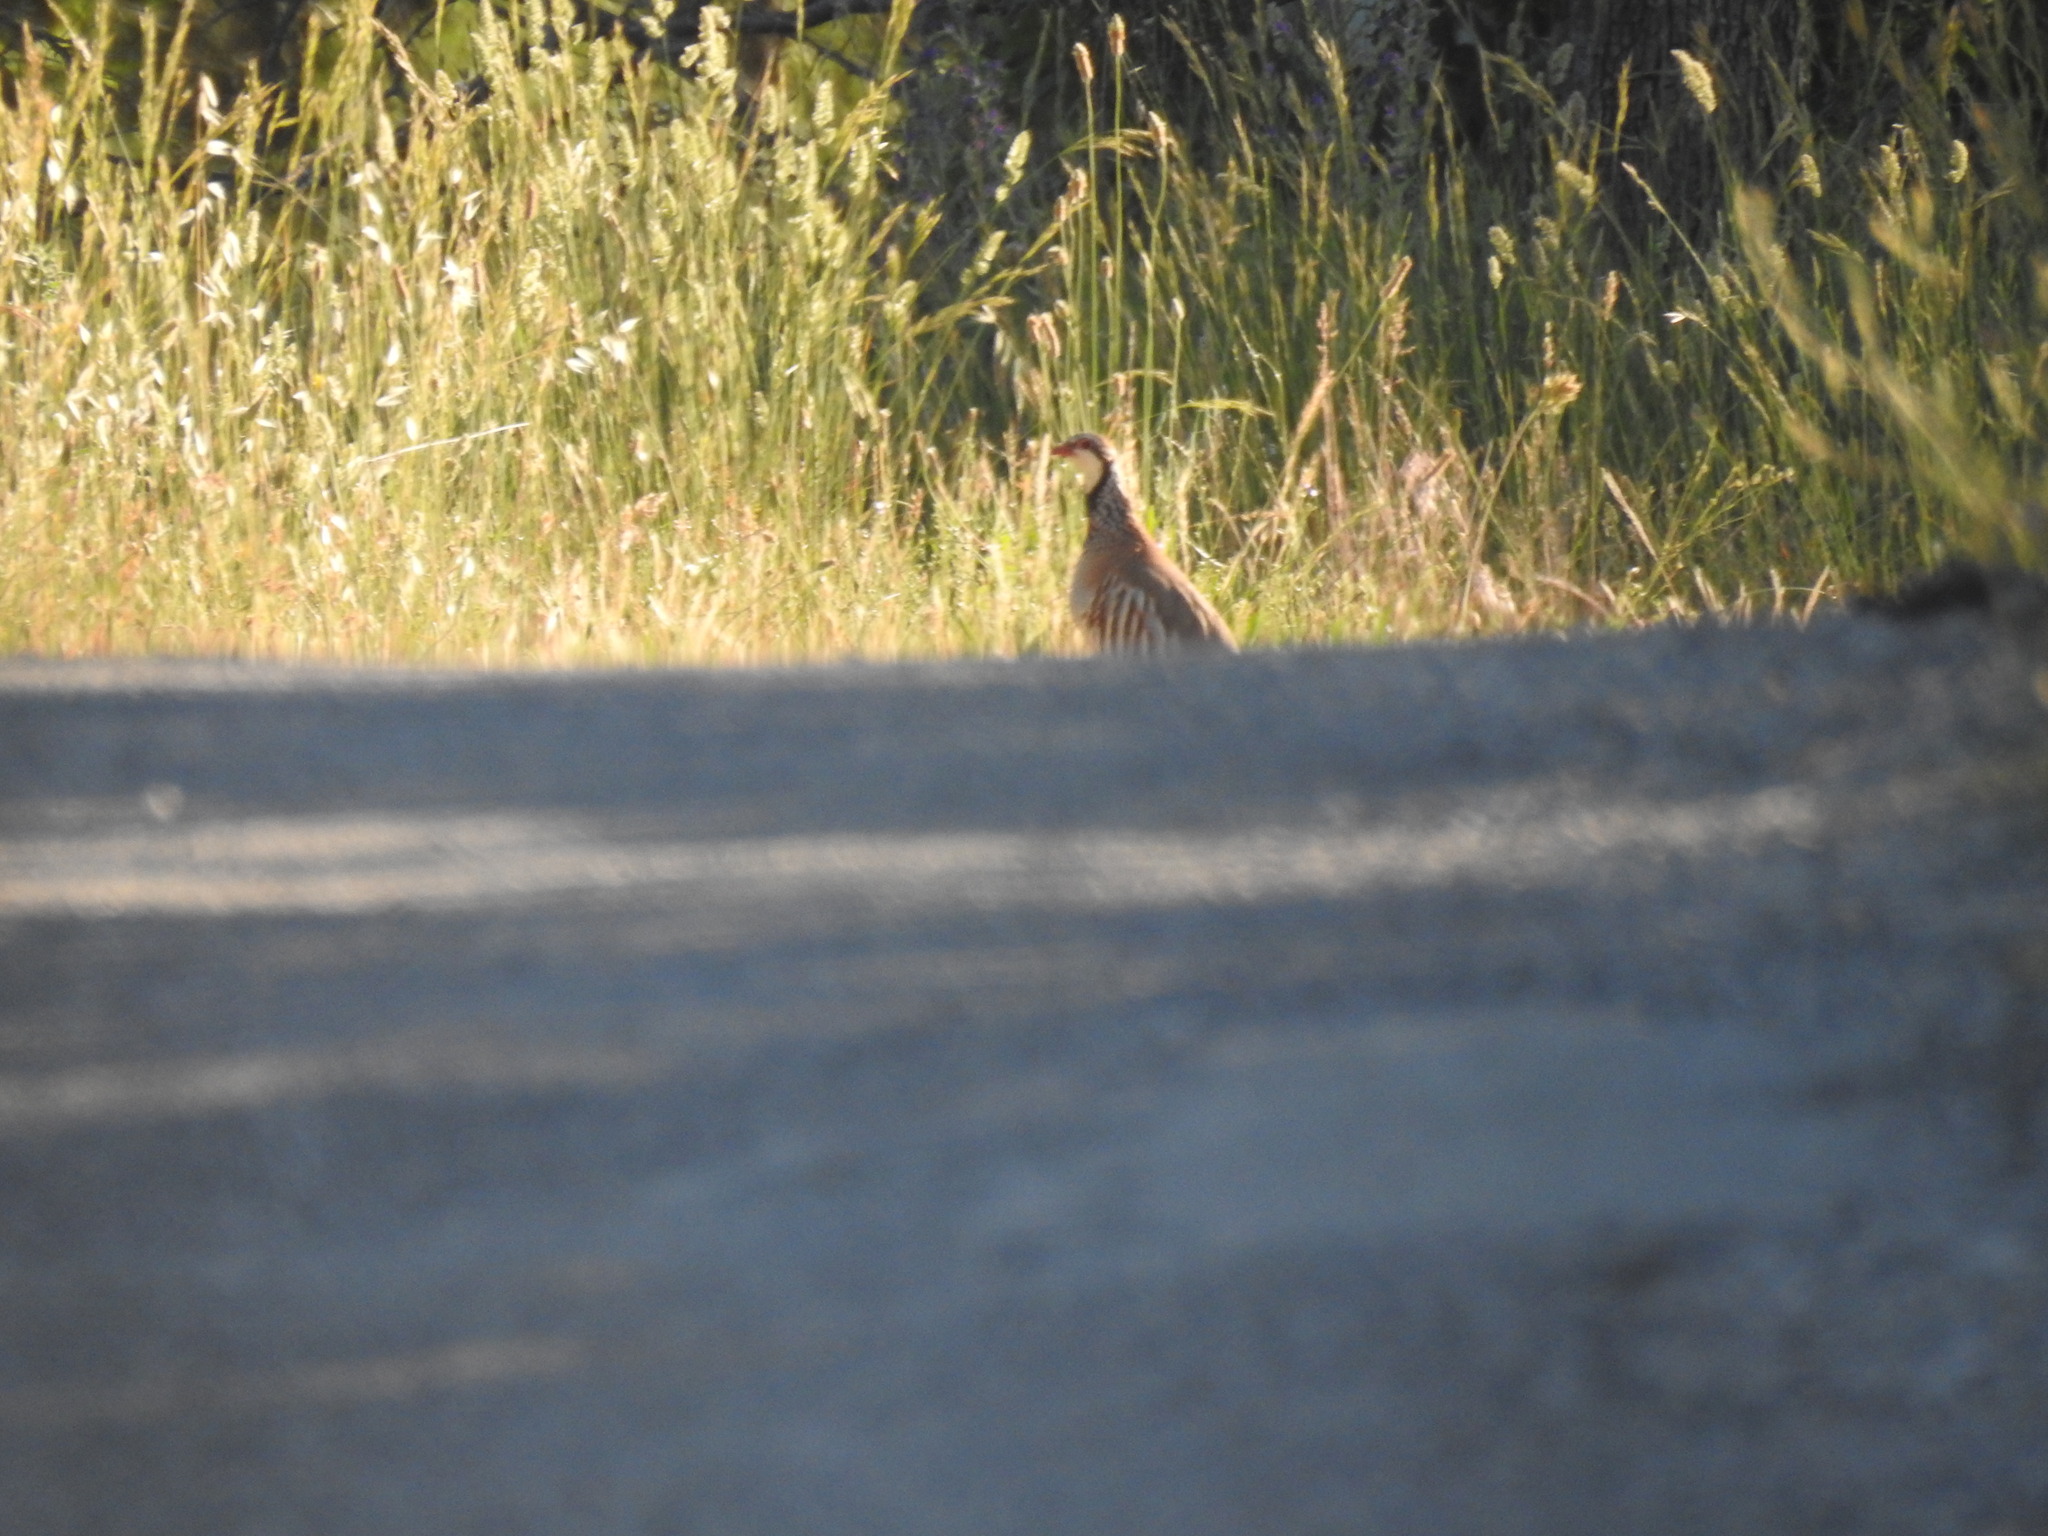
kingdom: Animalia
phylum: Chordata
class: Aves
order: Galliformes
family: Phasianidae
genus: Alectoris
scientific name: Alectoris rufa
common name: Red-legged partridge
